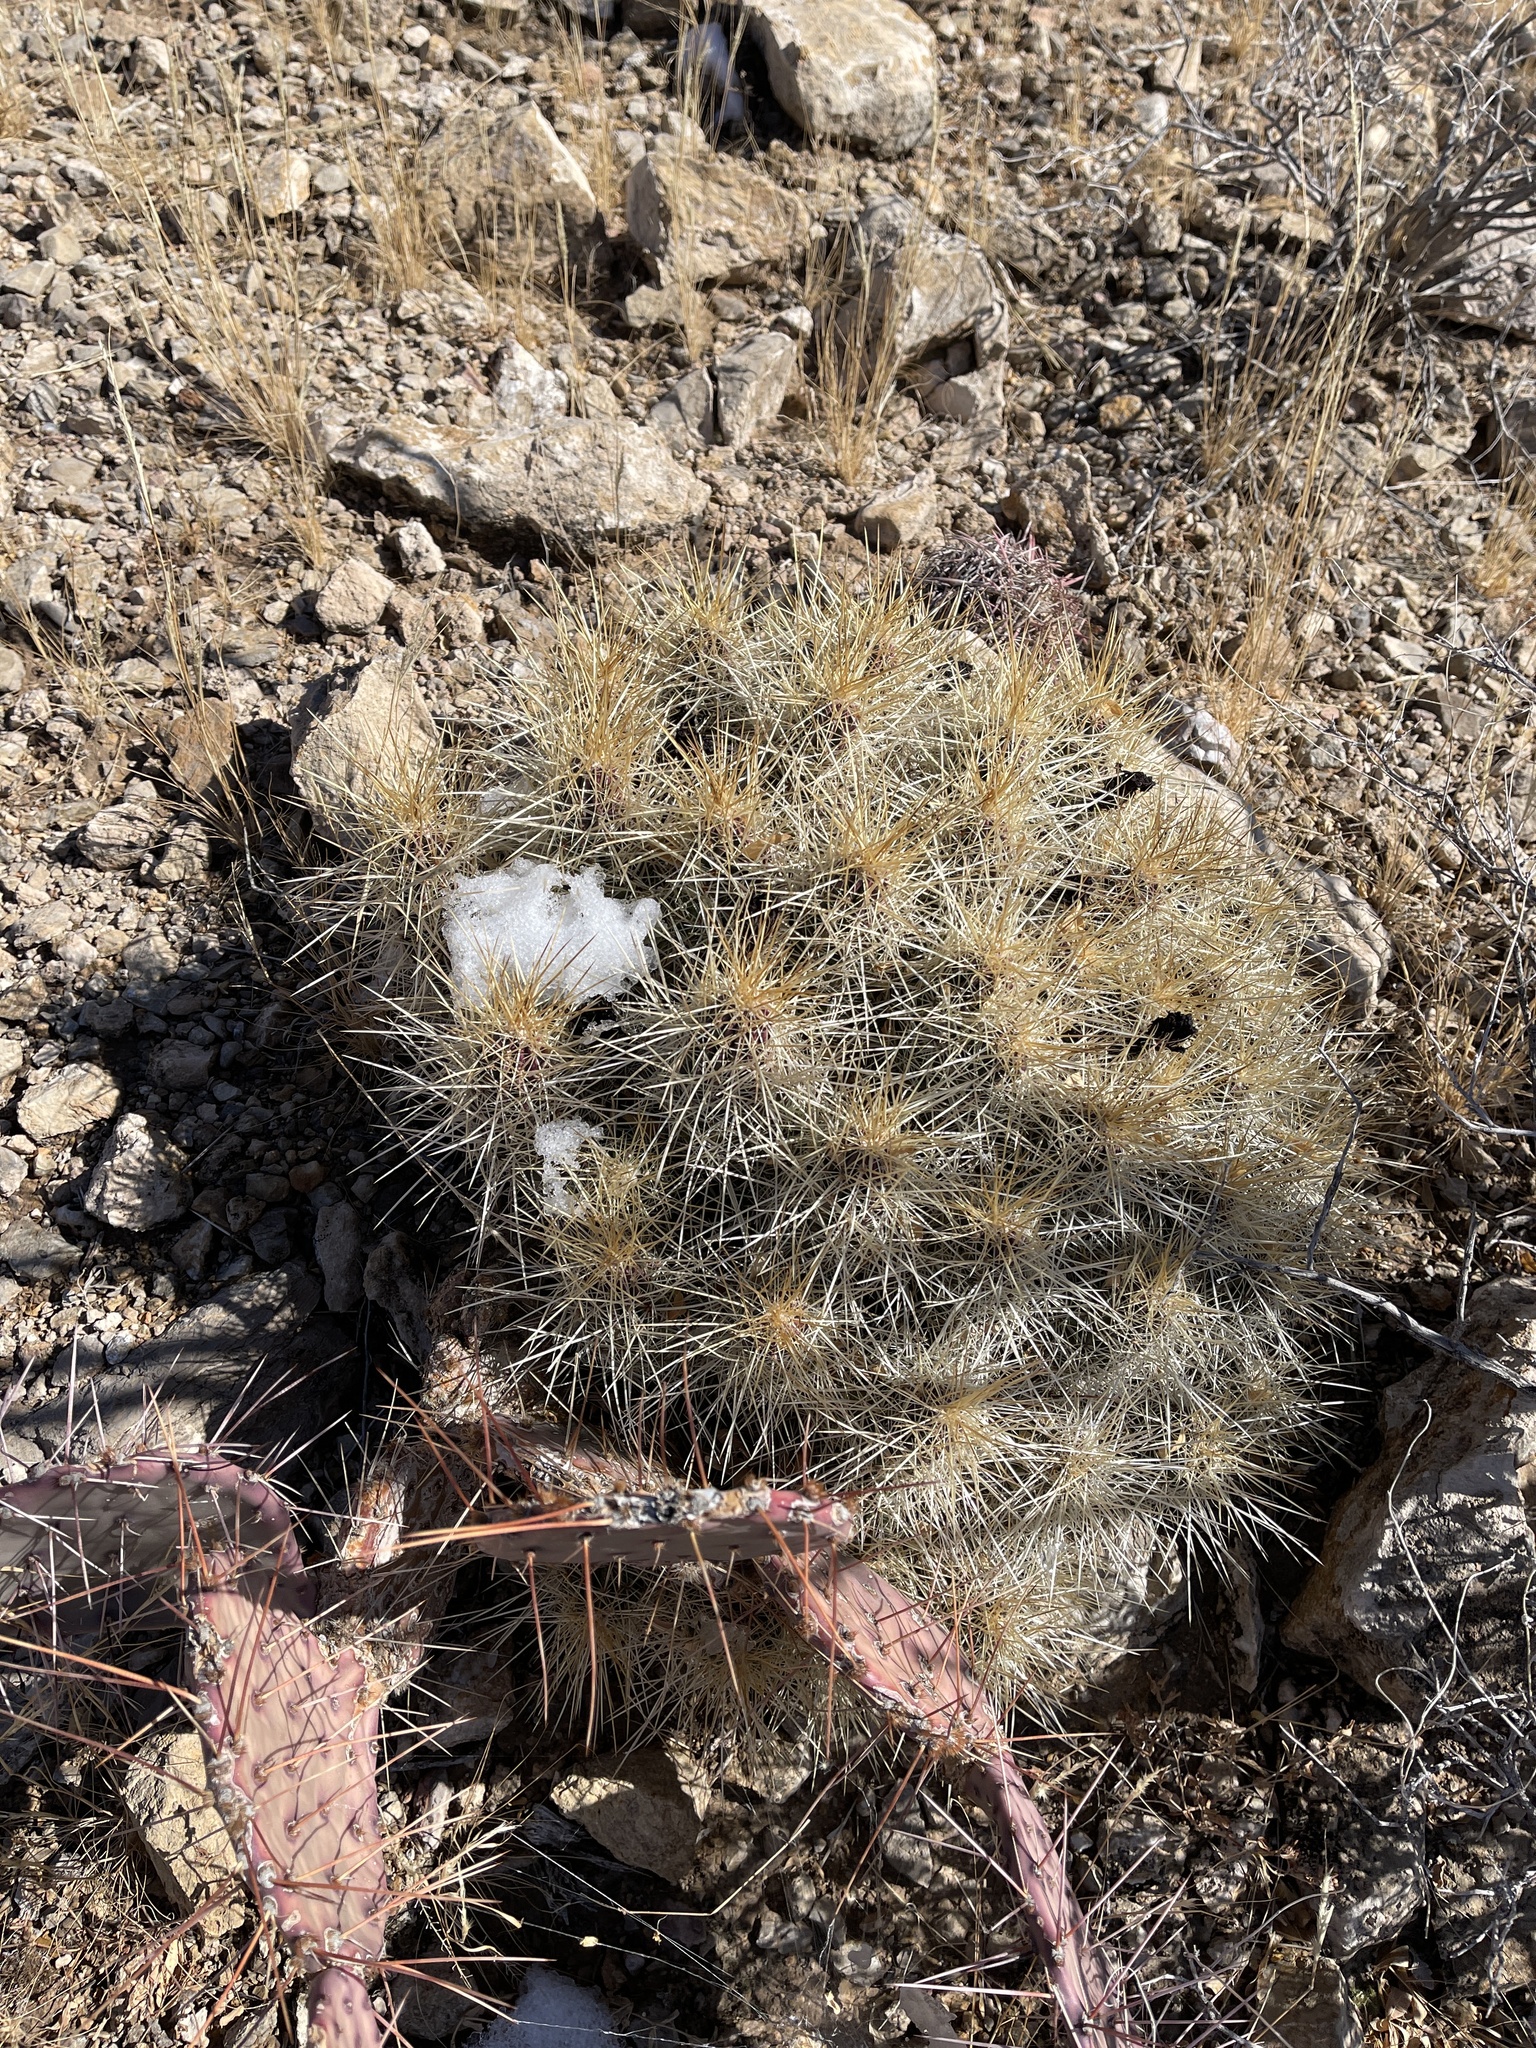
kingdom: Plantae
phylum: Tracheophyta
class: Magnoliopsida
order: Caryophyllales
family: Cactaceae
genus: Echinocereus
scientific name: Echinocereus stramineus
